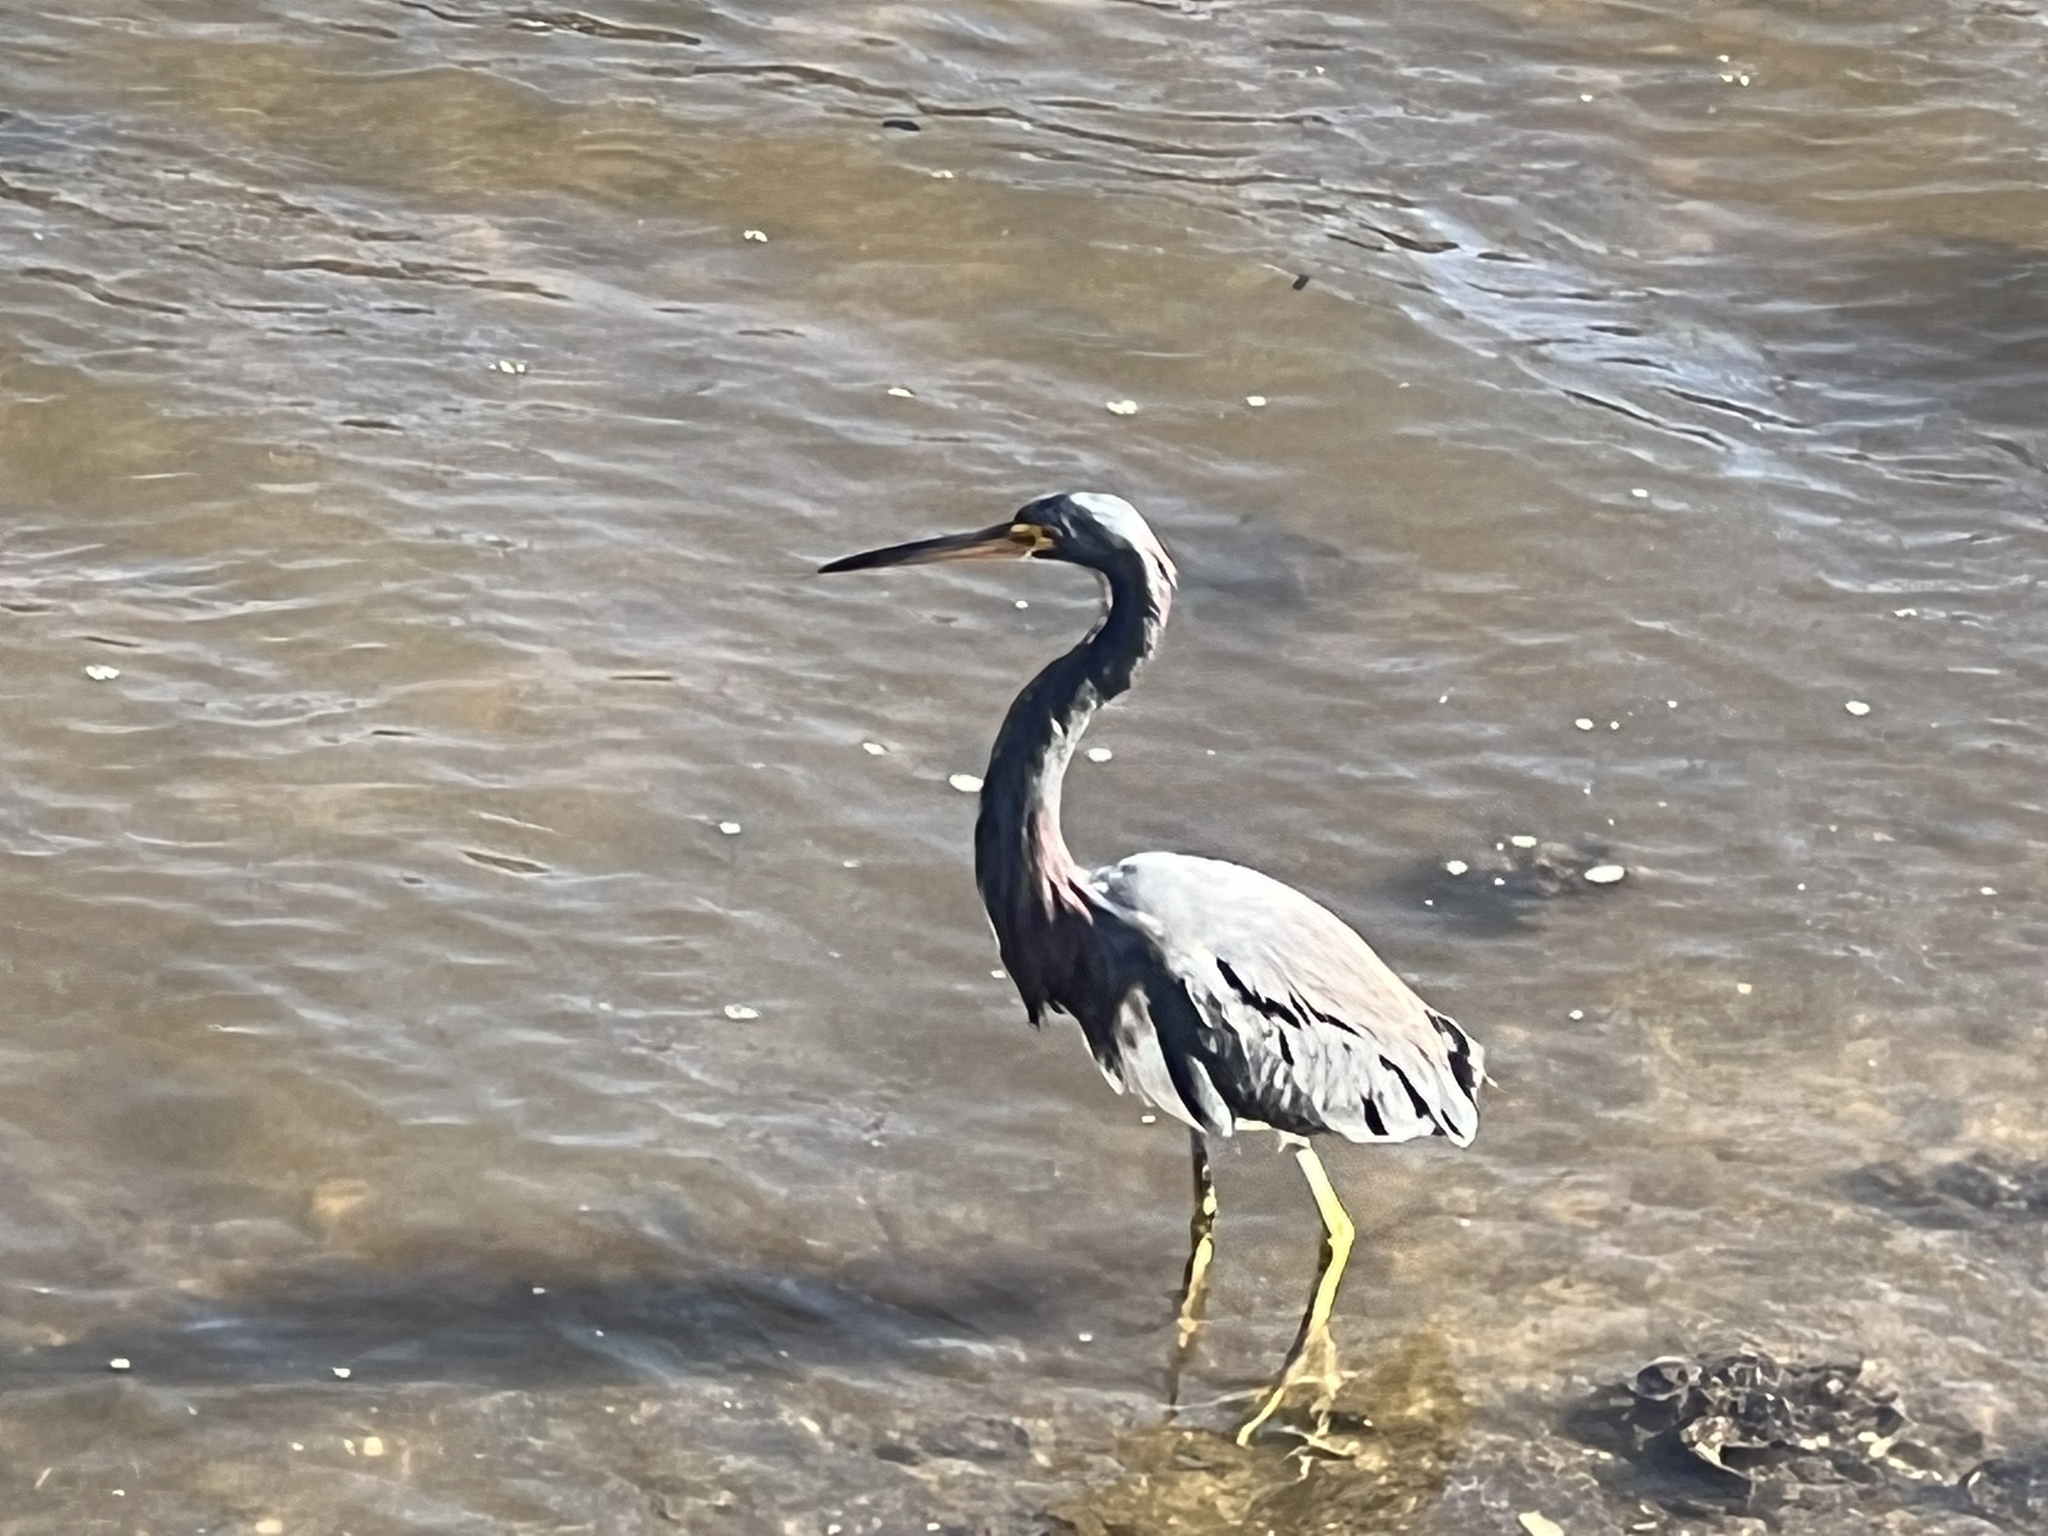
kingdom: Animalia
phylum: Chordata
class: Aves
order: Pelecaniformes
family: Ardeidae
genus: Egretta
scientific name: Egretta tricolor
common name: Tricolored heron
